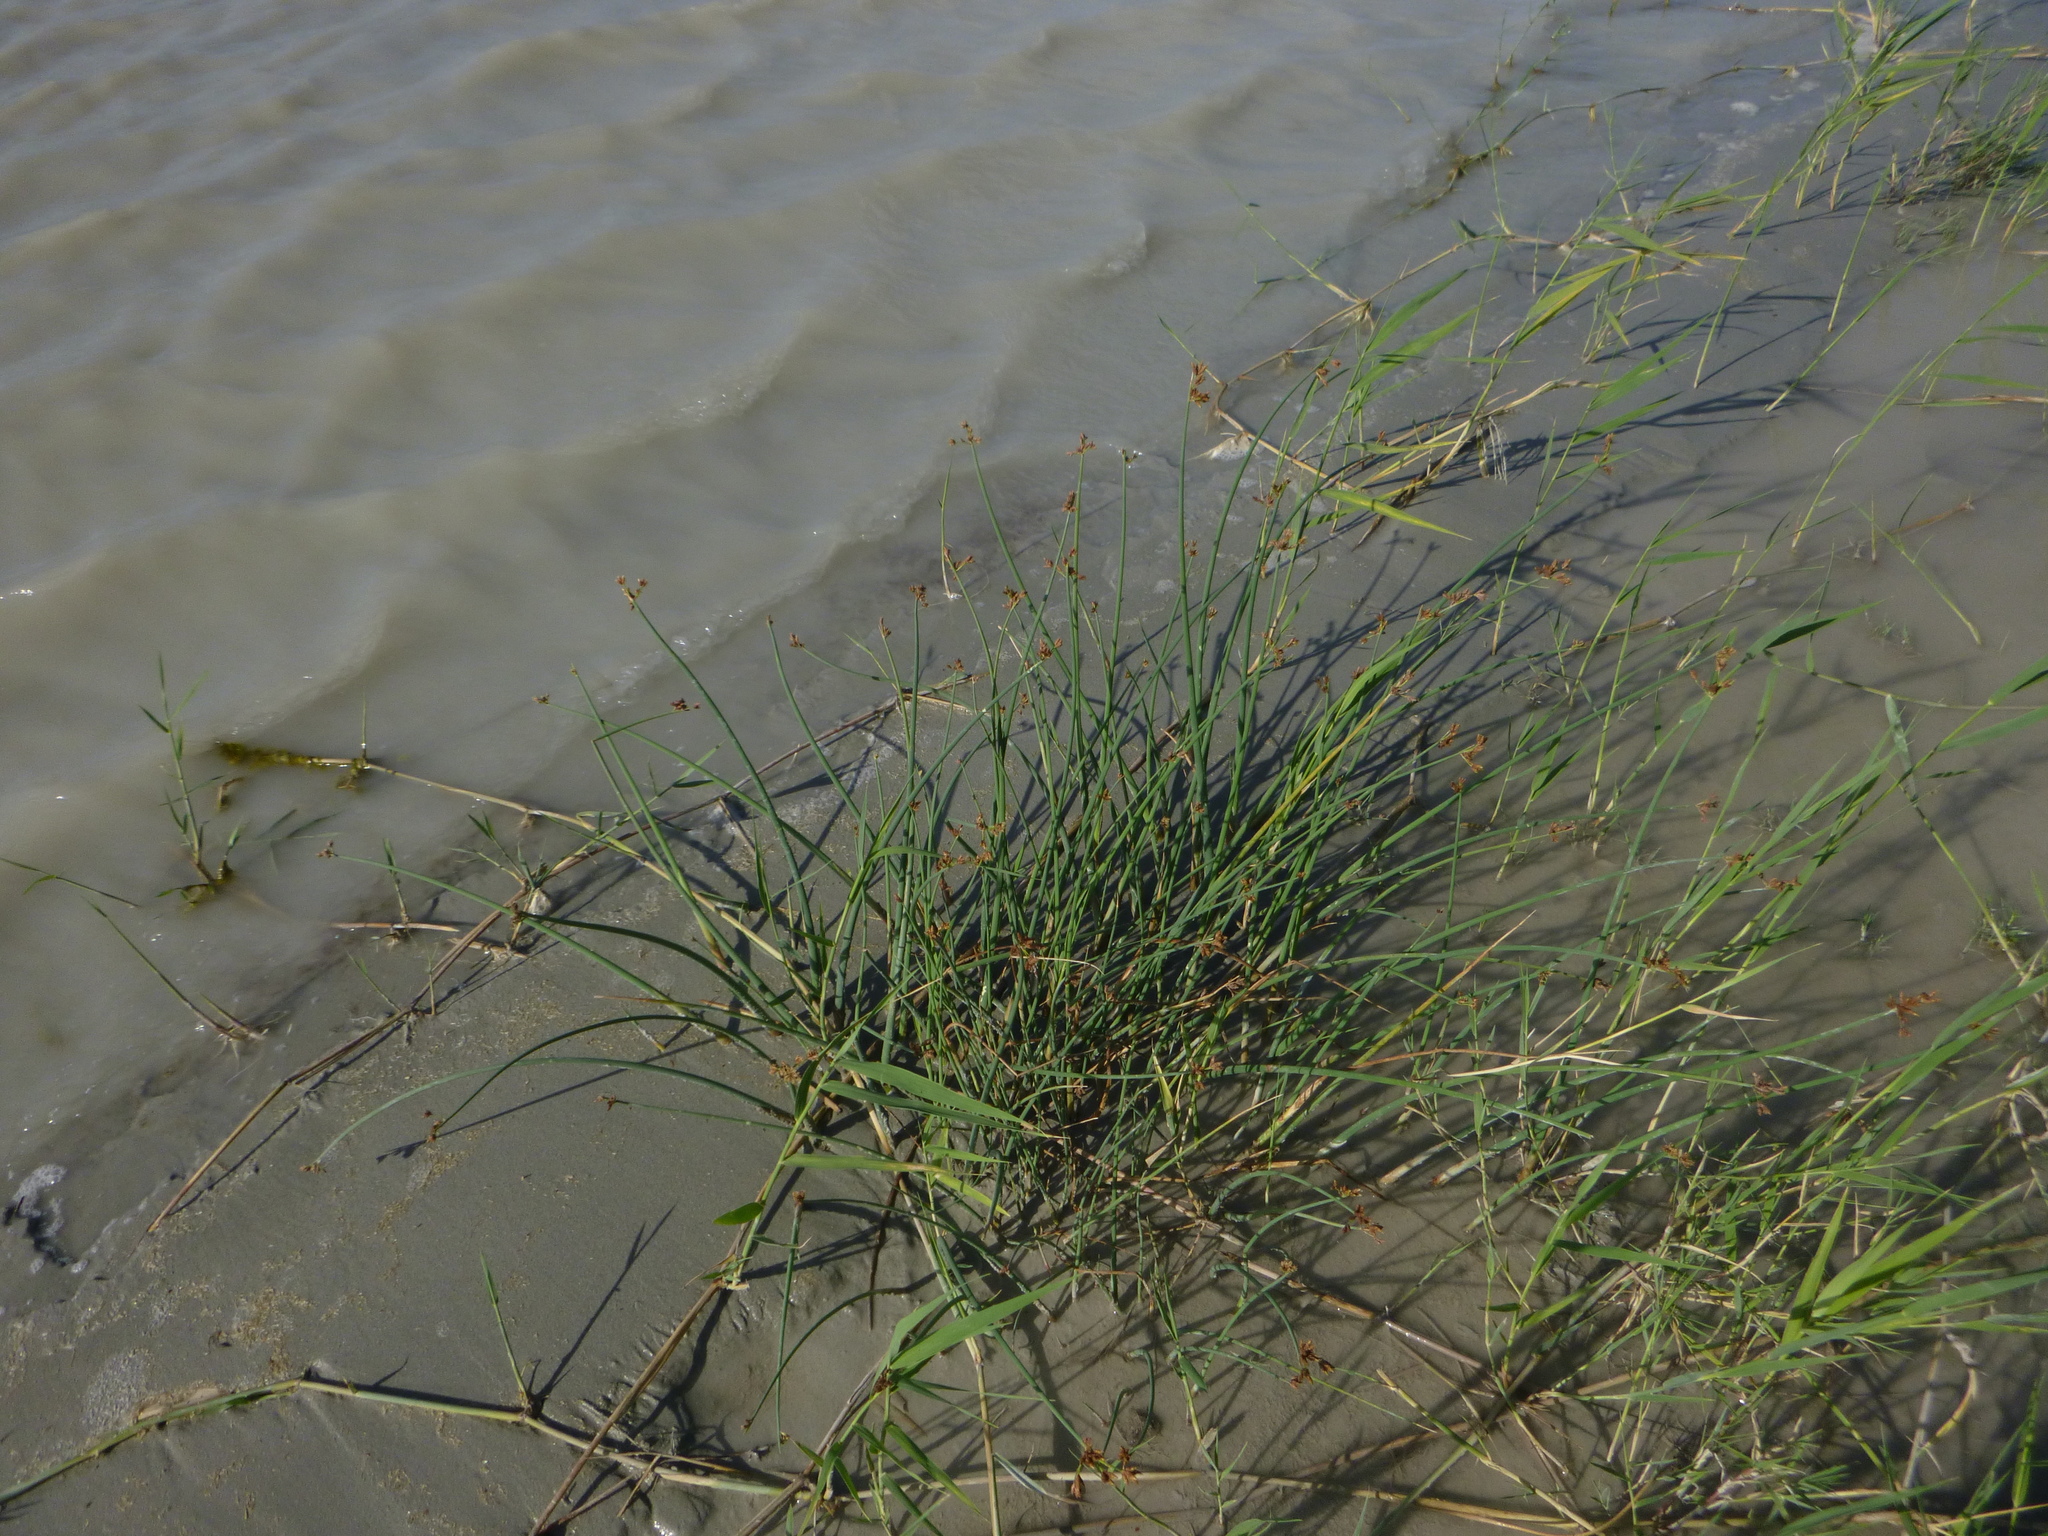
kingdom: Plantae
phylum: Tracheophyta
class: Liliopsida
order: Poales
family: Cyperaceae
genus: Schoenoplectus
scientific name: Schoenoplectus tabernaemontani
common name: Grey club-rush
